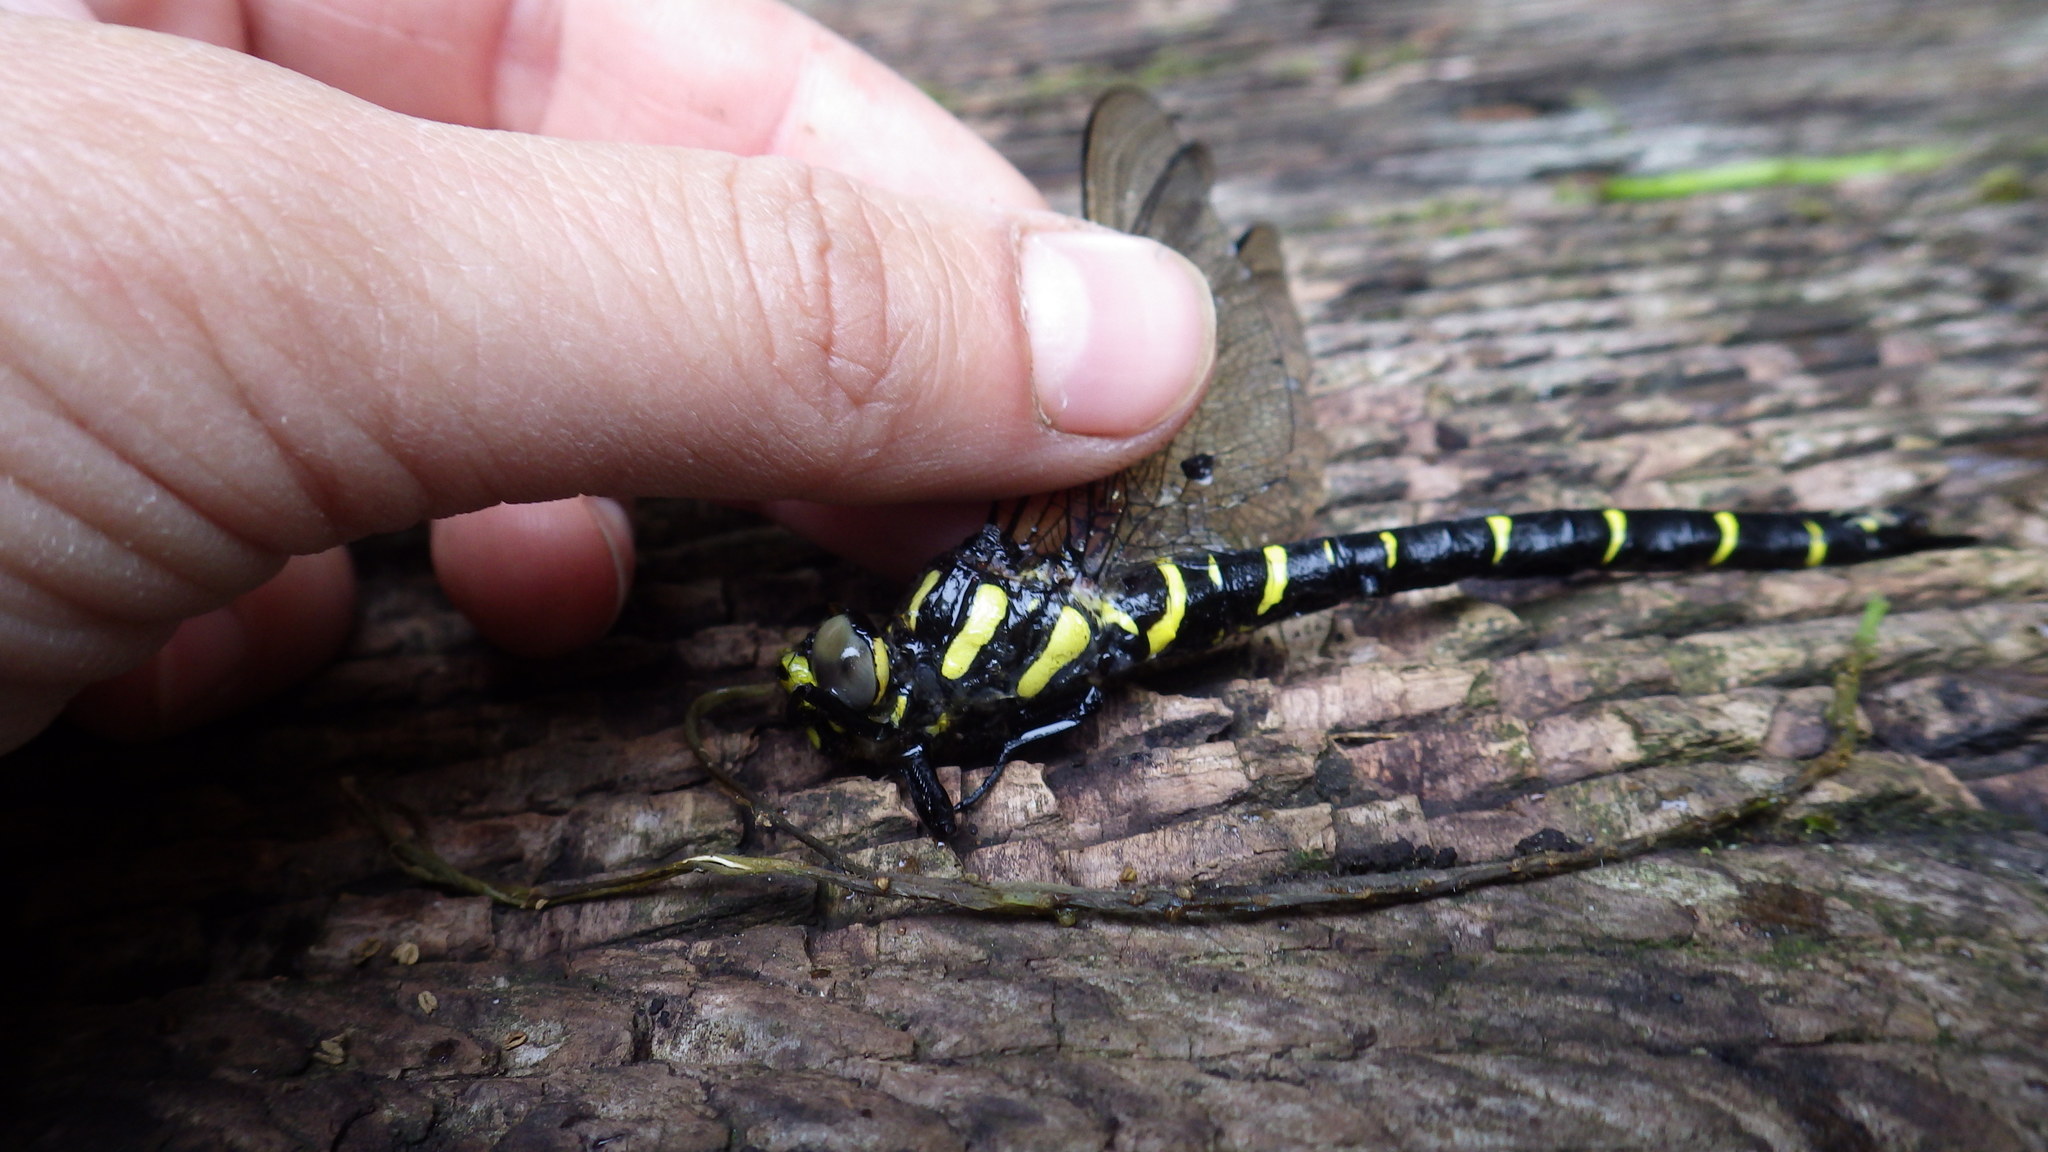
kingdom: Animalia
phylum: Arthropoda
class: Insecta
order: Odonata
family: Cordulegastridae
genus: Cordulegaster
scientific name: Cordulegaster bidentata
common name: Sombre goldenring
